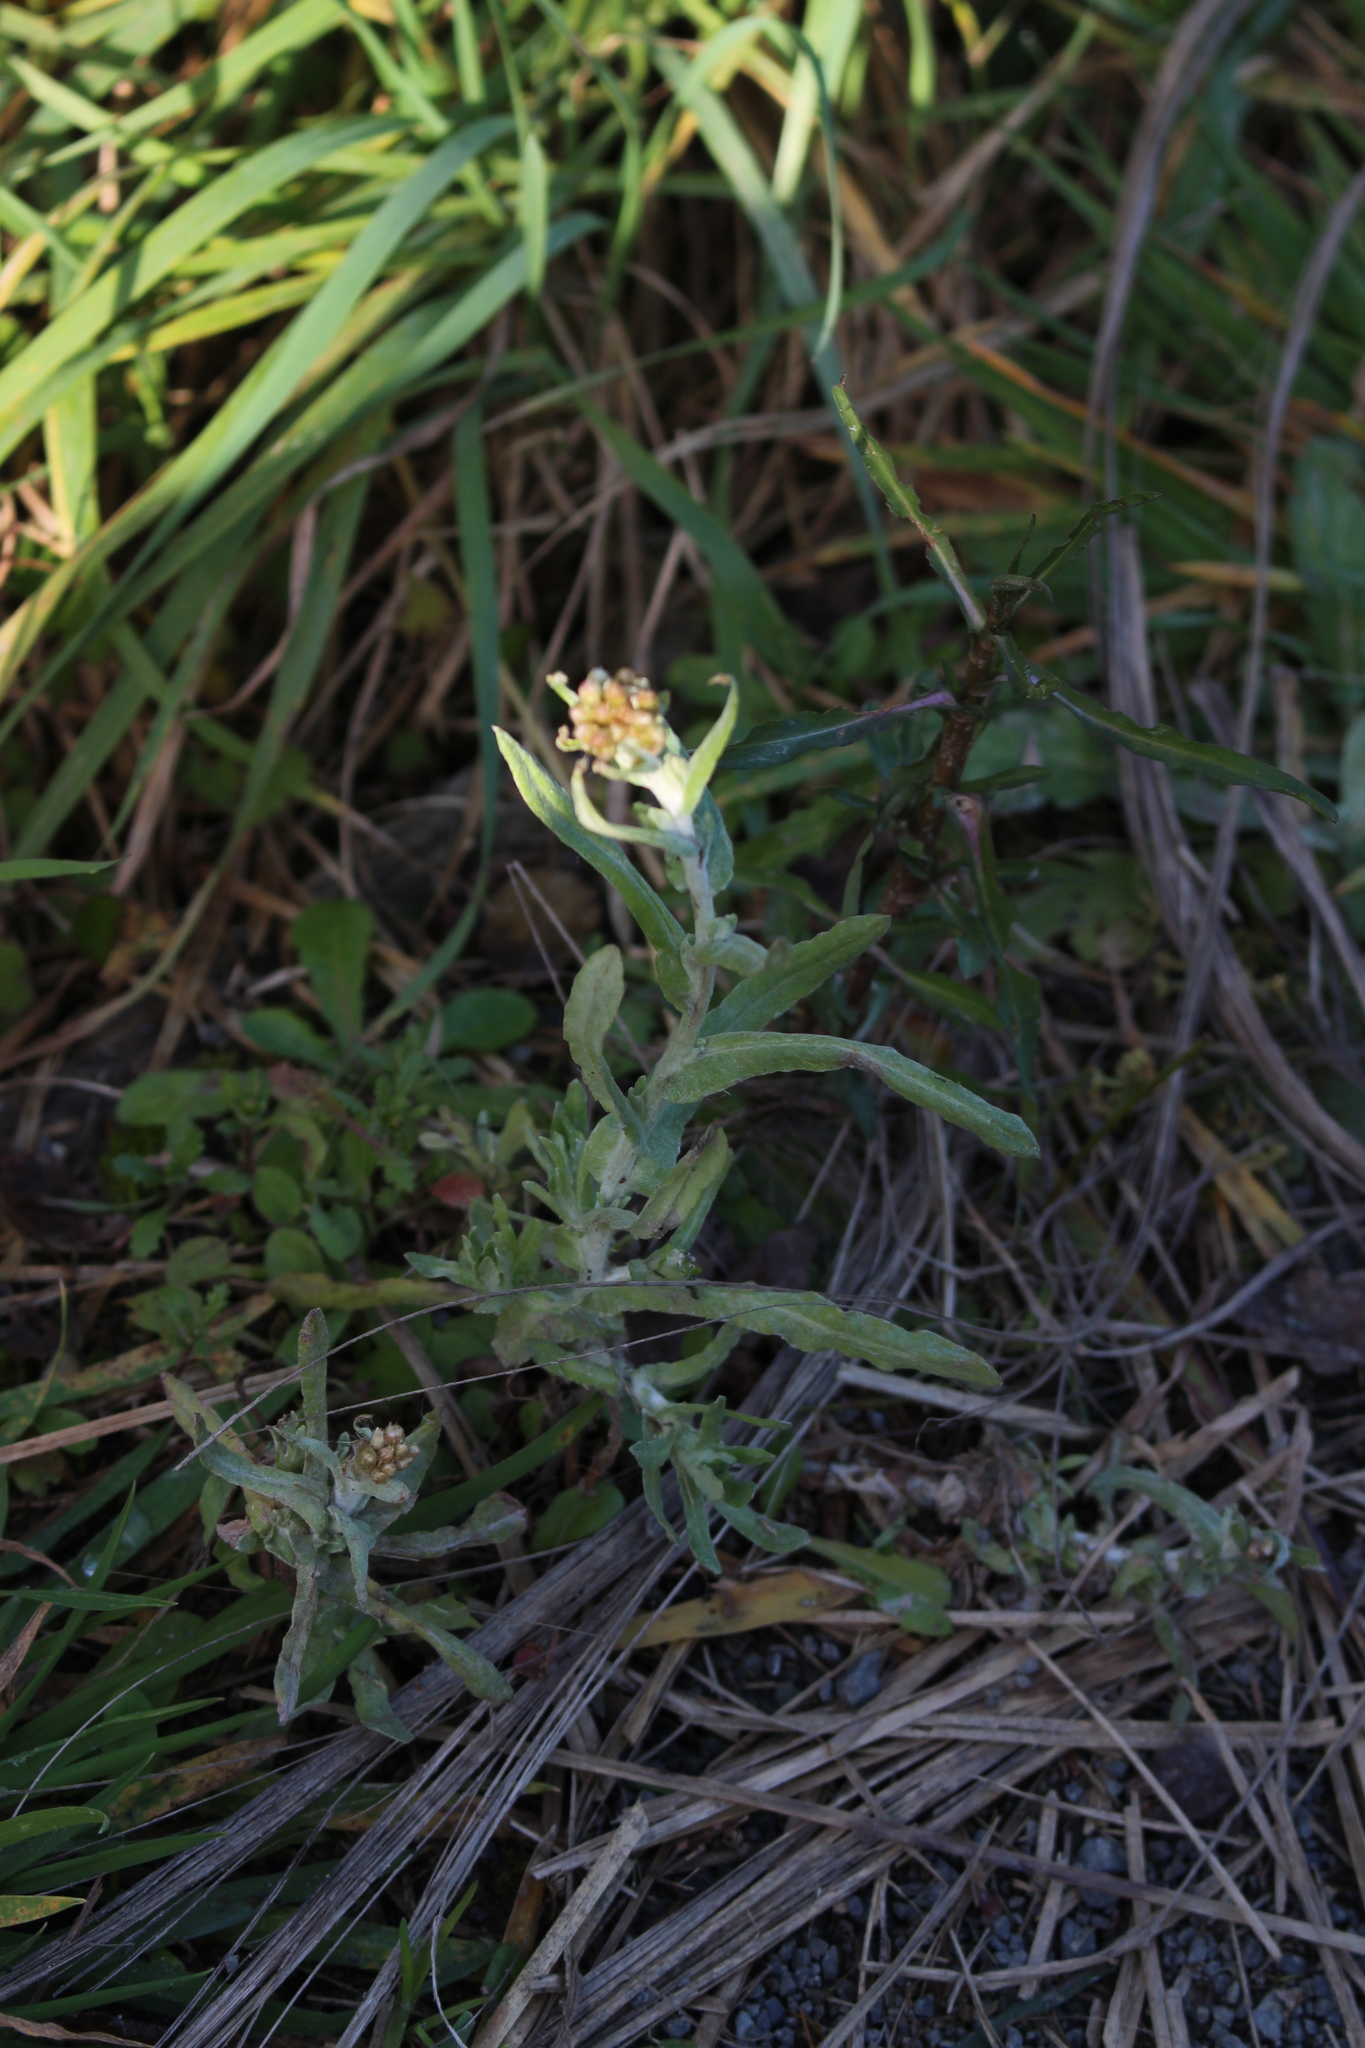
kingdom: Plantae
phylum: Tracheophyta
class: Magnoliopsida
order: Asterales
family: Asteraceae
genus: Helichrysum
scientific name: Helichrysum luteoalbum
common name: Daisy
